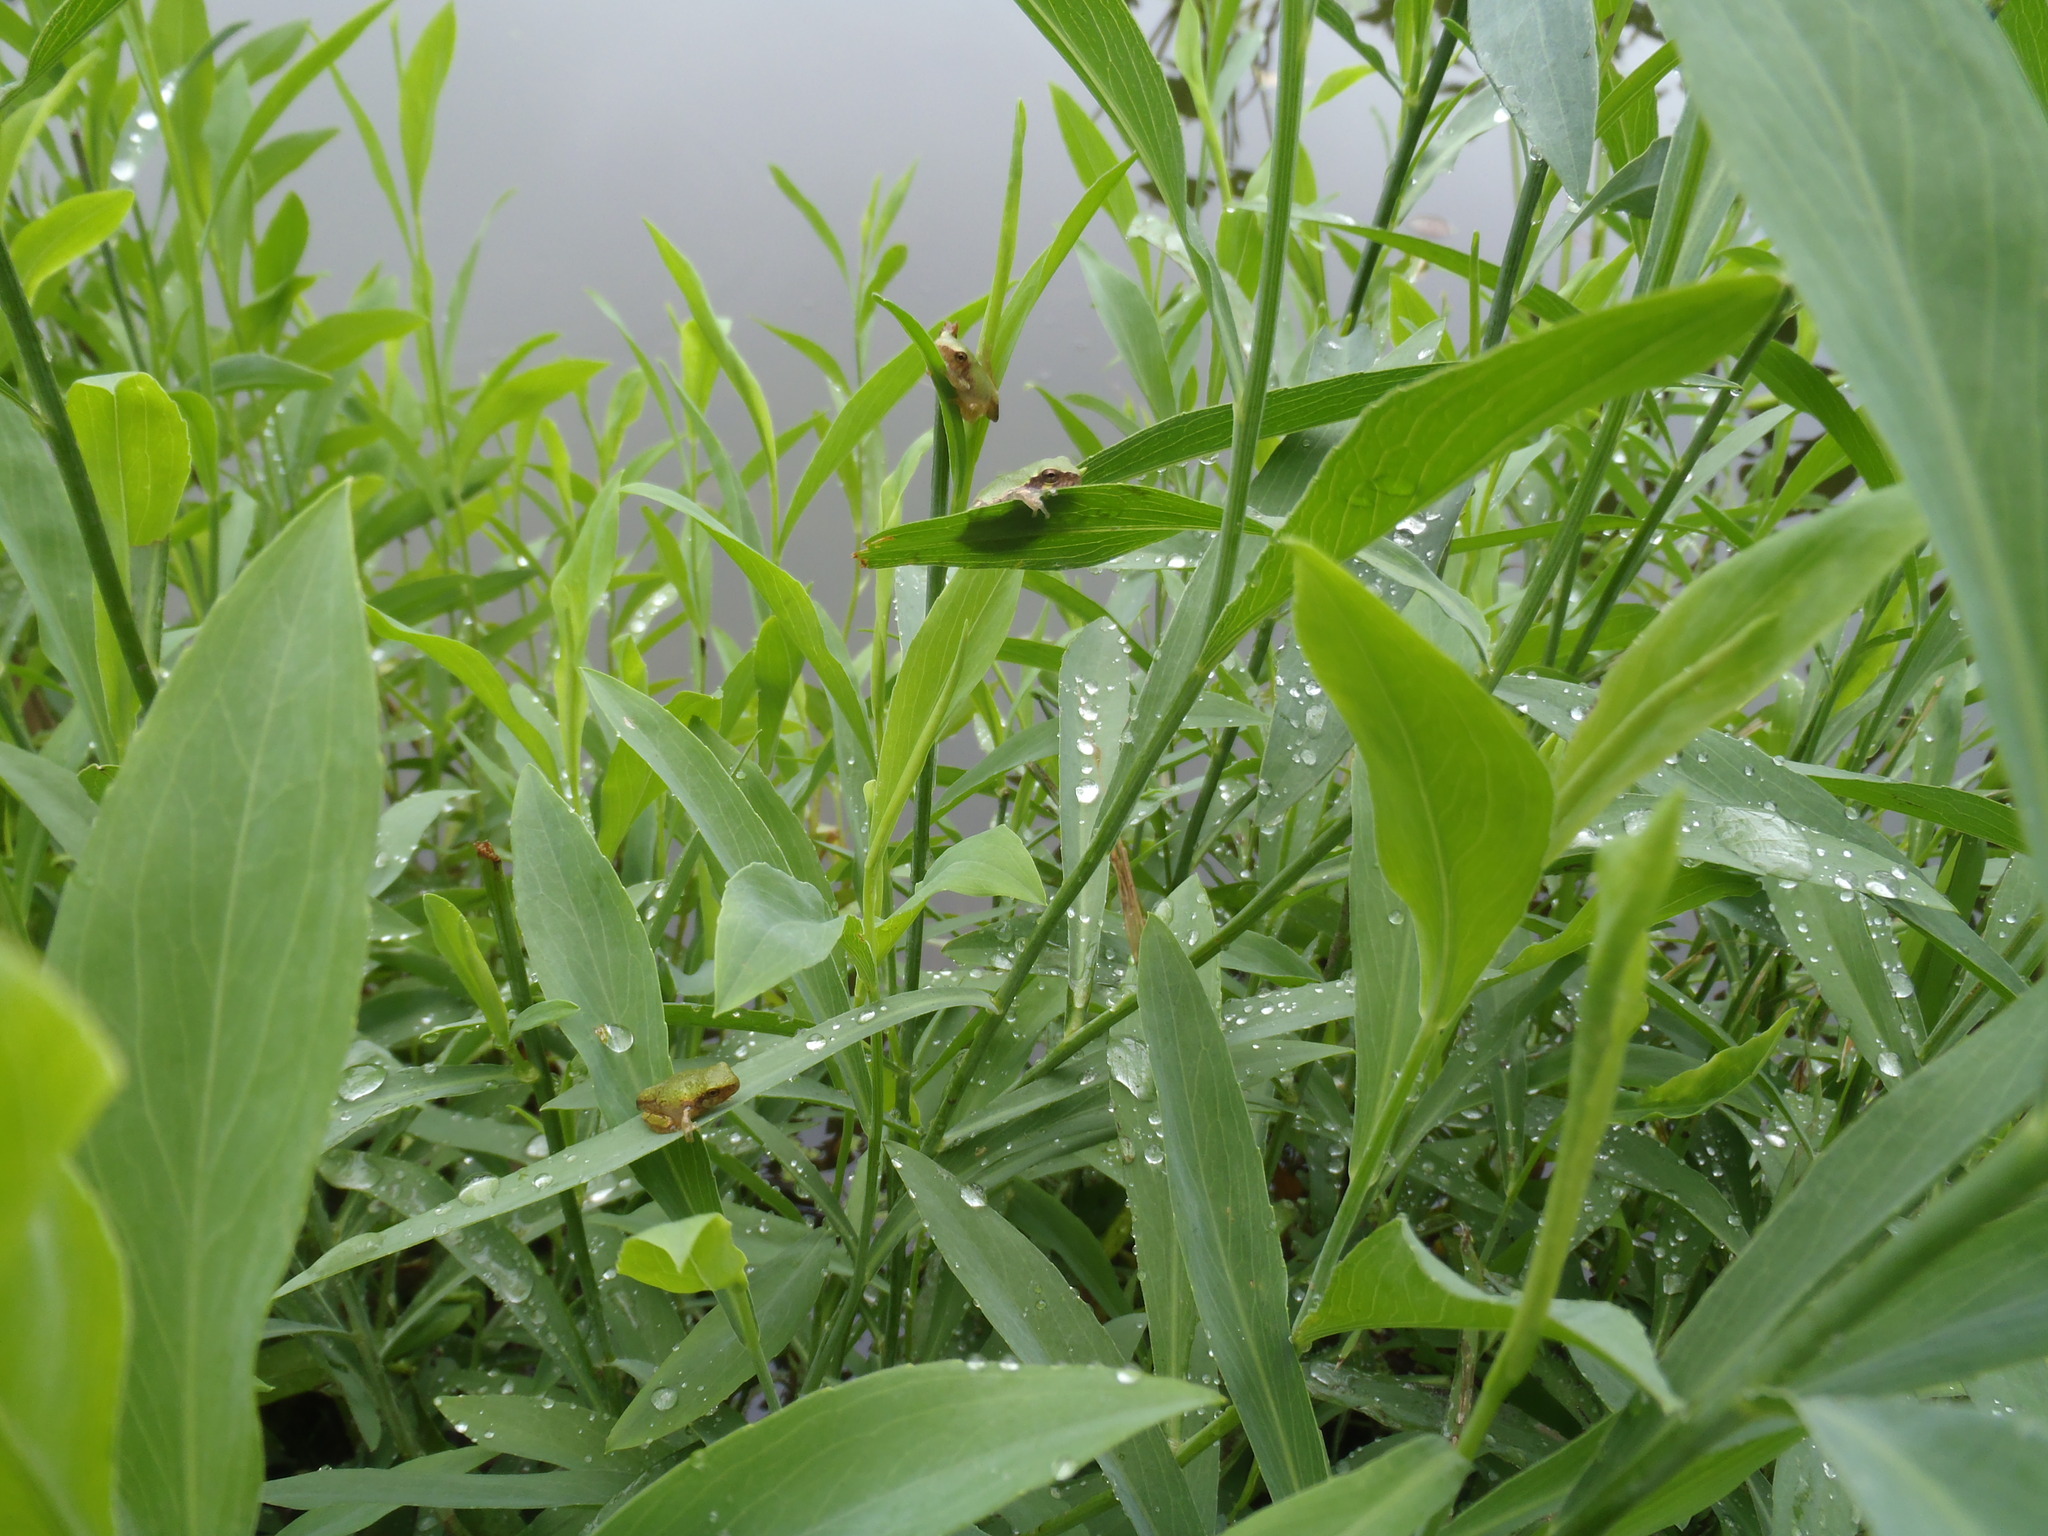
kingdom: Animalia
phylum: Chordata
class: Amphibia
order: Anura
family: Hylidae
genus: Dryophytes
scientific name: Dryophytes chrysoscelis
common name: Cope's gray treefrog
